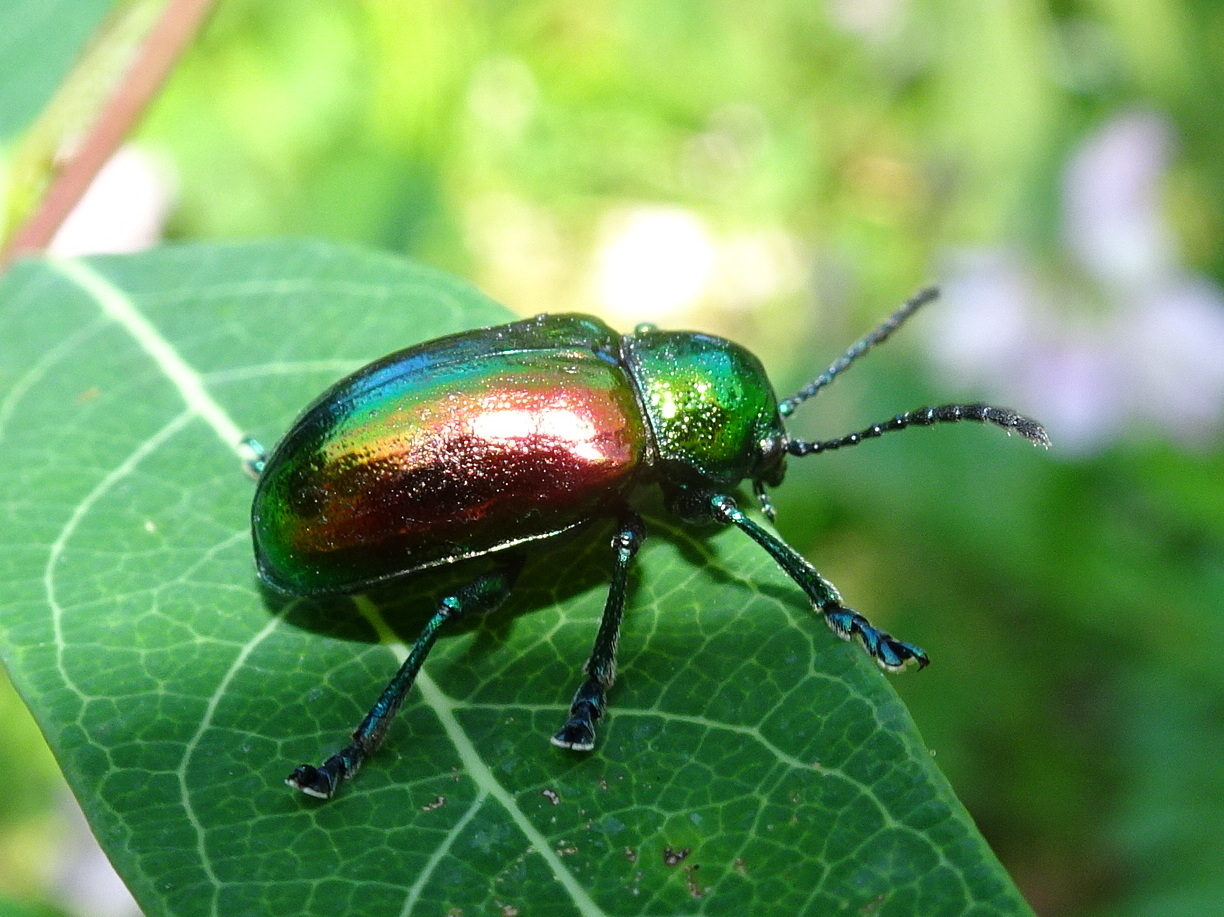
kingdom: Animalia
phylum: Arthropoda
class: Insecta
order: Coleoptera
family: Chrysomelidae
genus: Chrysochus
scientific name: Chrysochus auratus
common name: Dogbane leaf beetle
